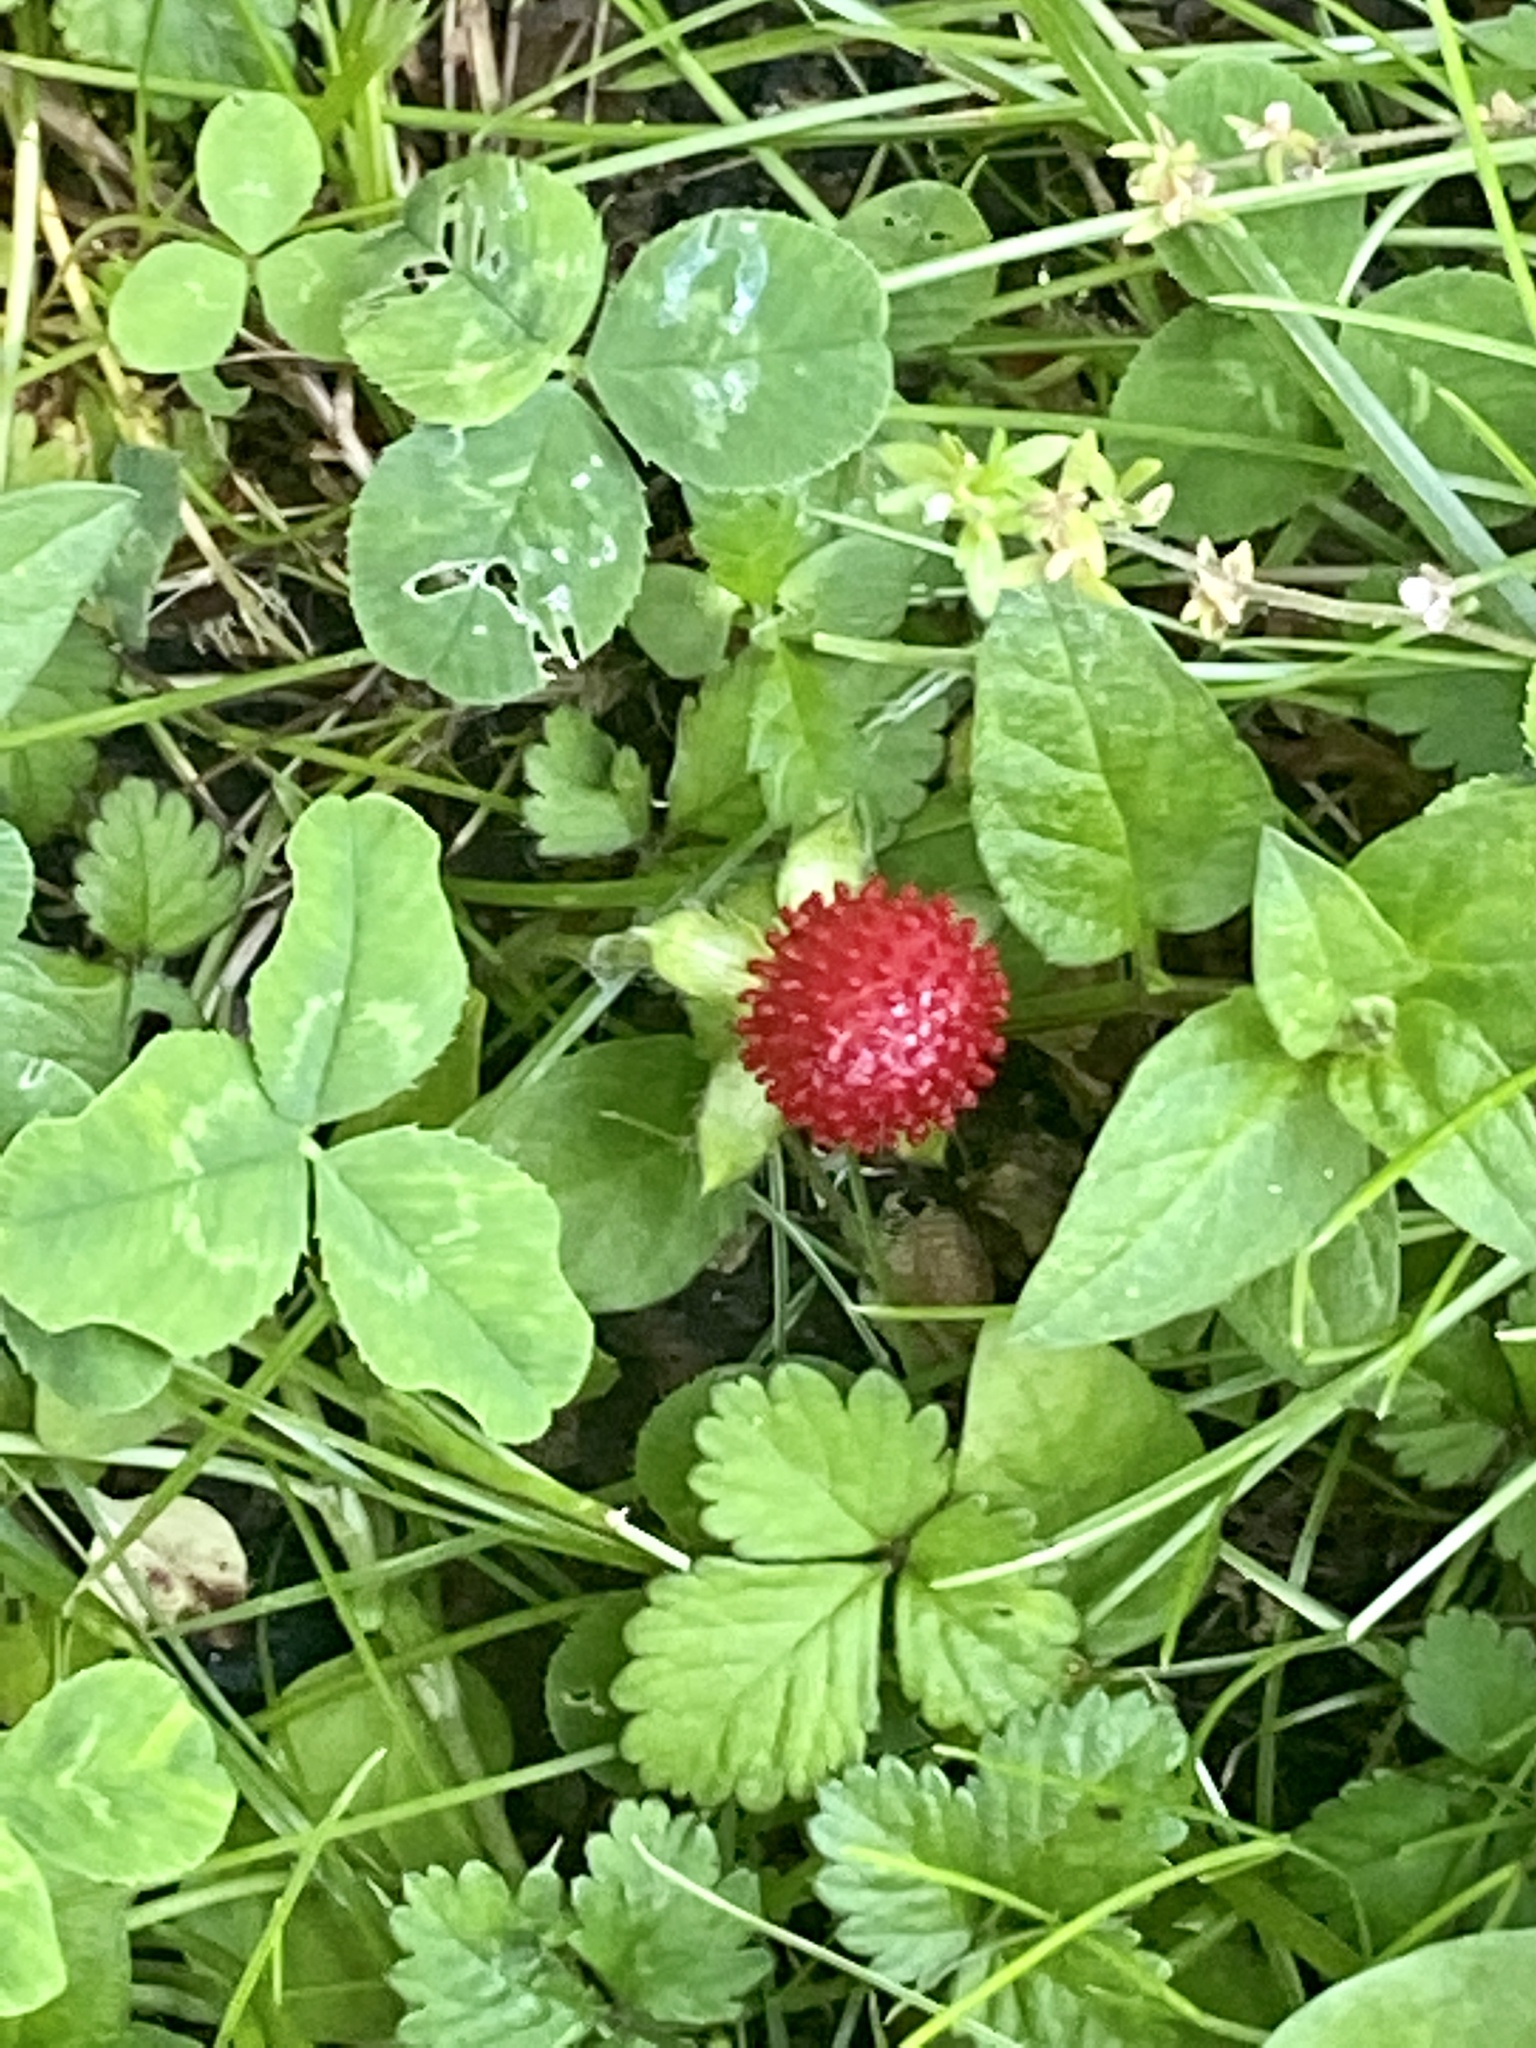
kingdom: Plantae
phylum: Tracheophyta
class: Magnoliopsida
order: Rosales
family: Rosaceae
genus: Potentilla
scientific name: Potentilla indica
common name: Yellow-flowered strawberry
